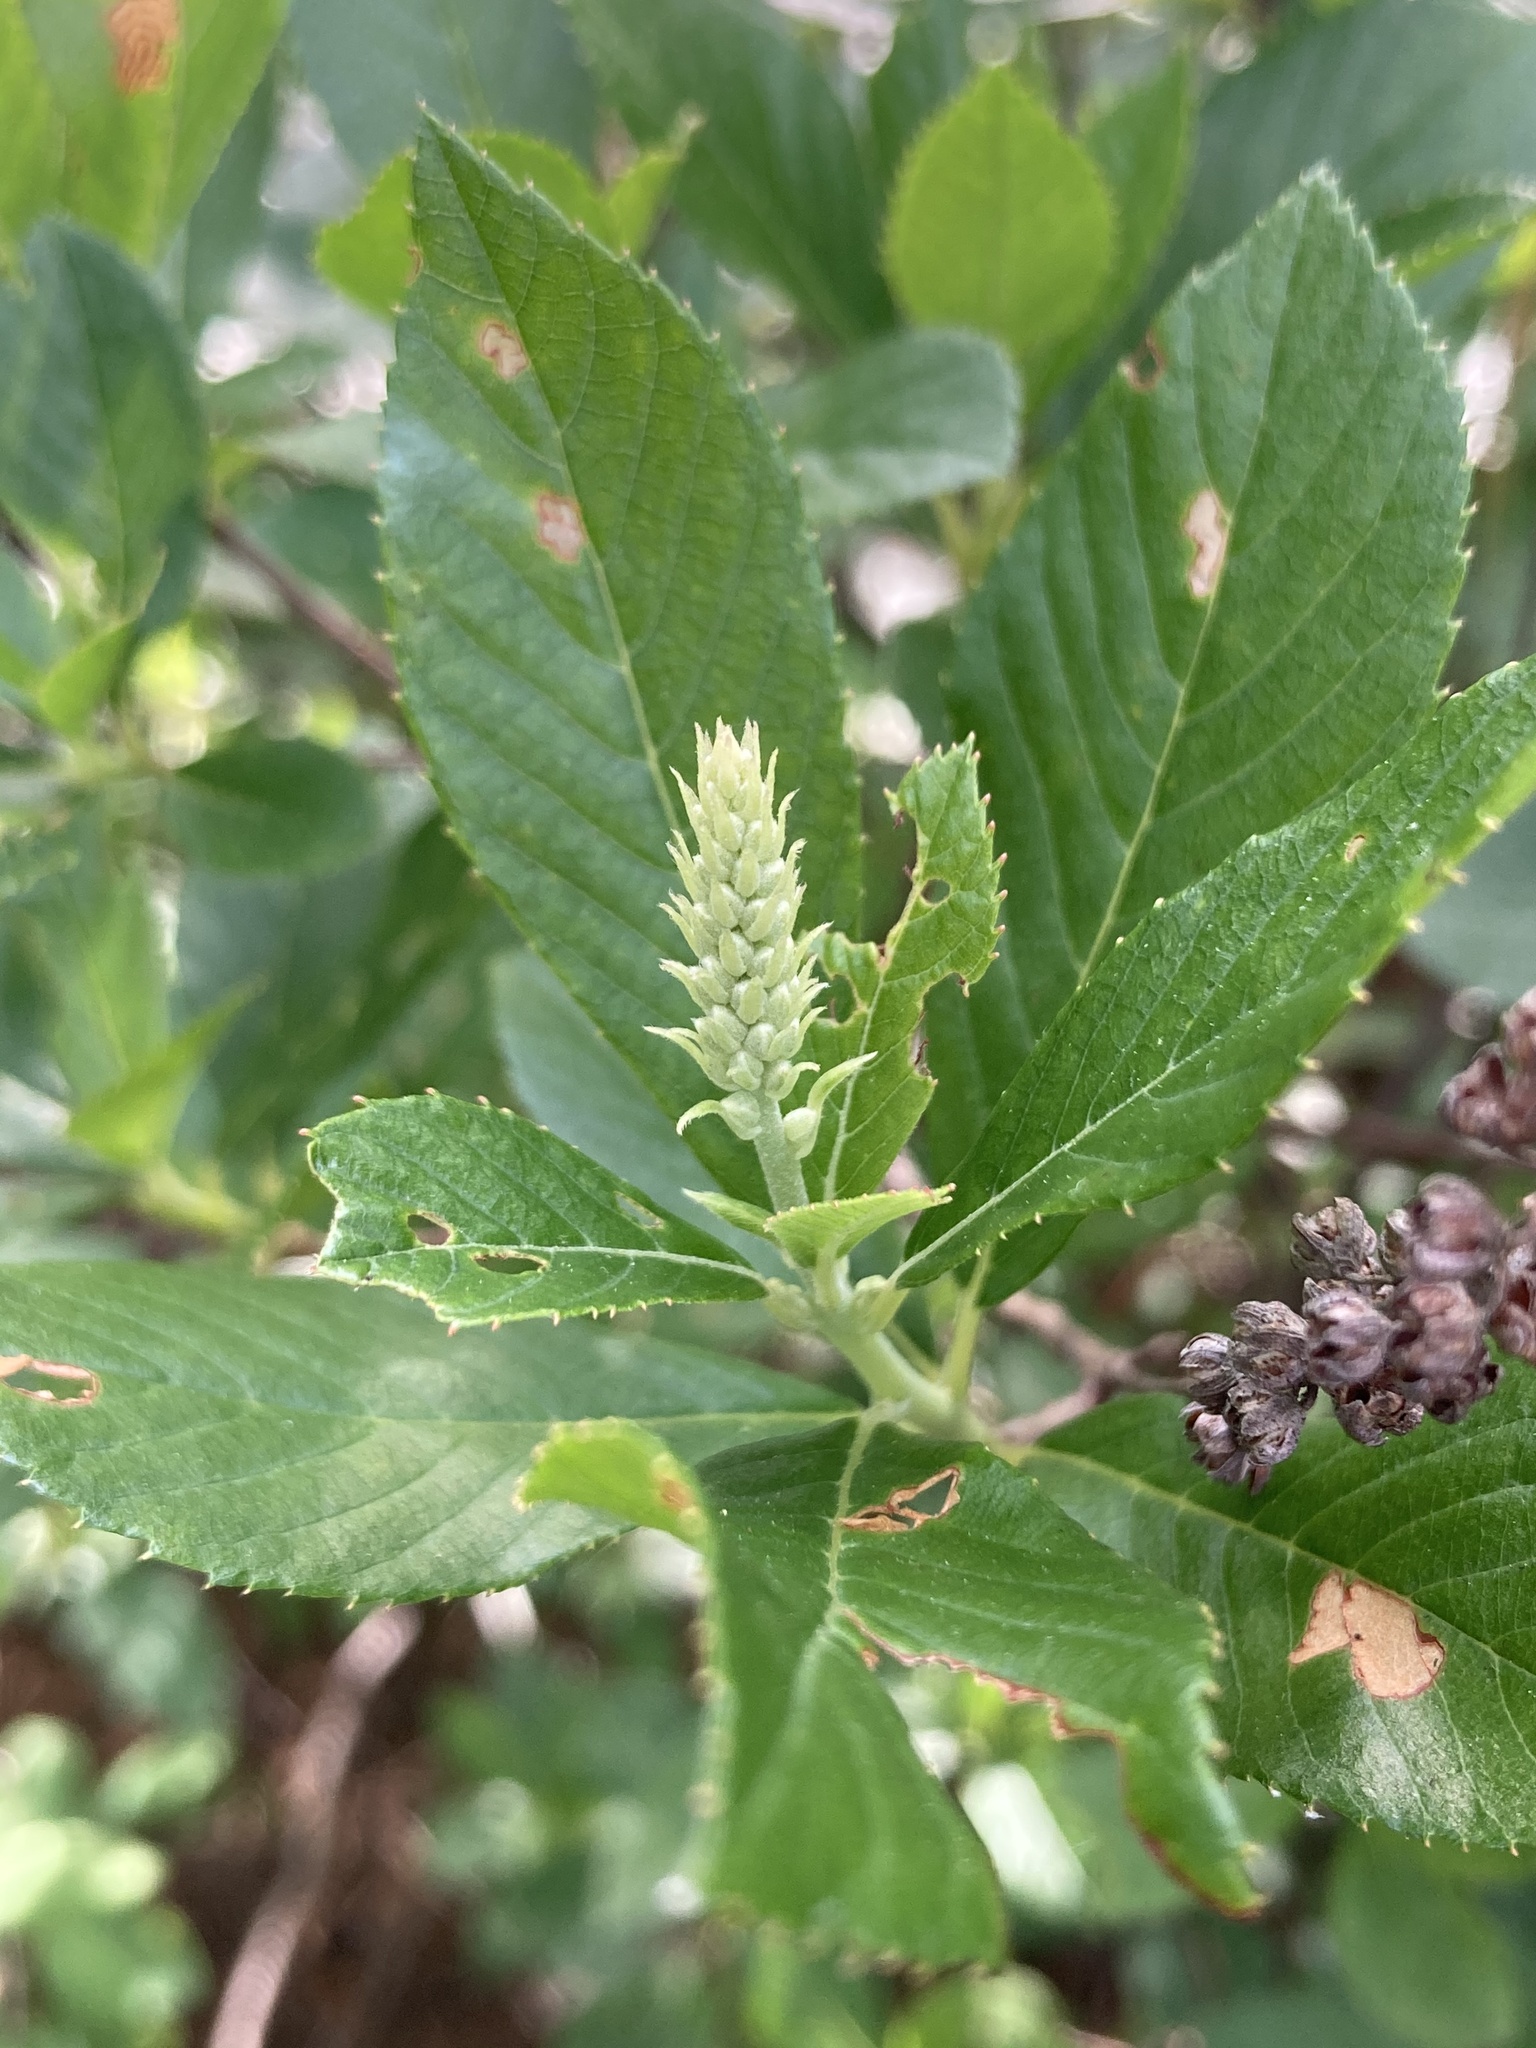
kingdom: Plantae
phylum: Tracheophyta
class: Magnoliopsida
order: Ericales
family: Clethraceae
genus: Clethra
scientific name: Clethra alnifolia
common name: Sweet pepperbush
